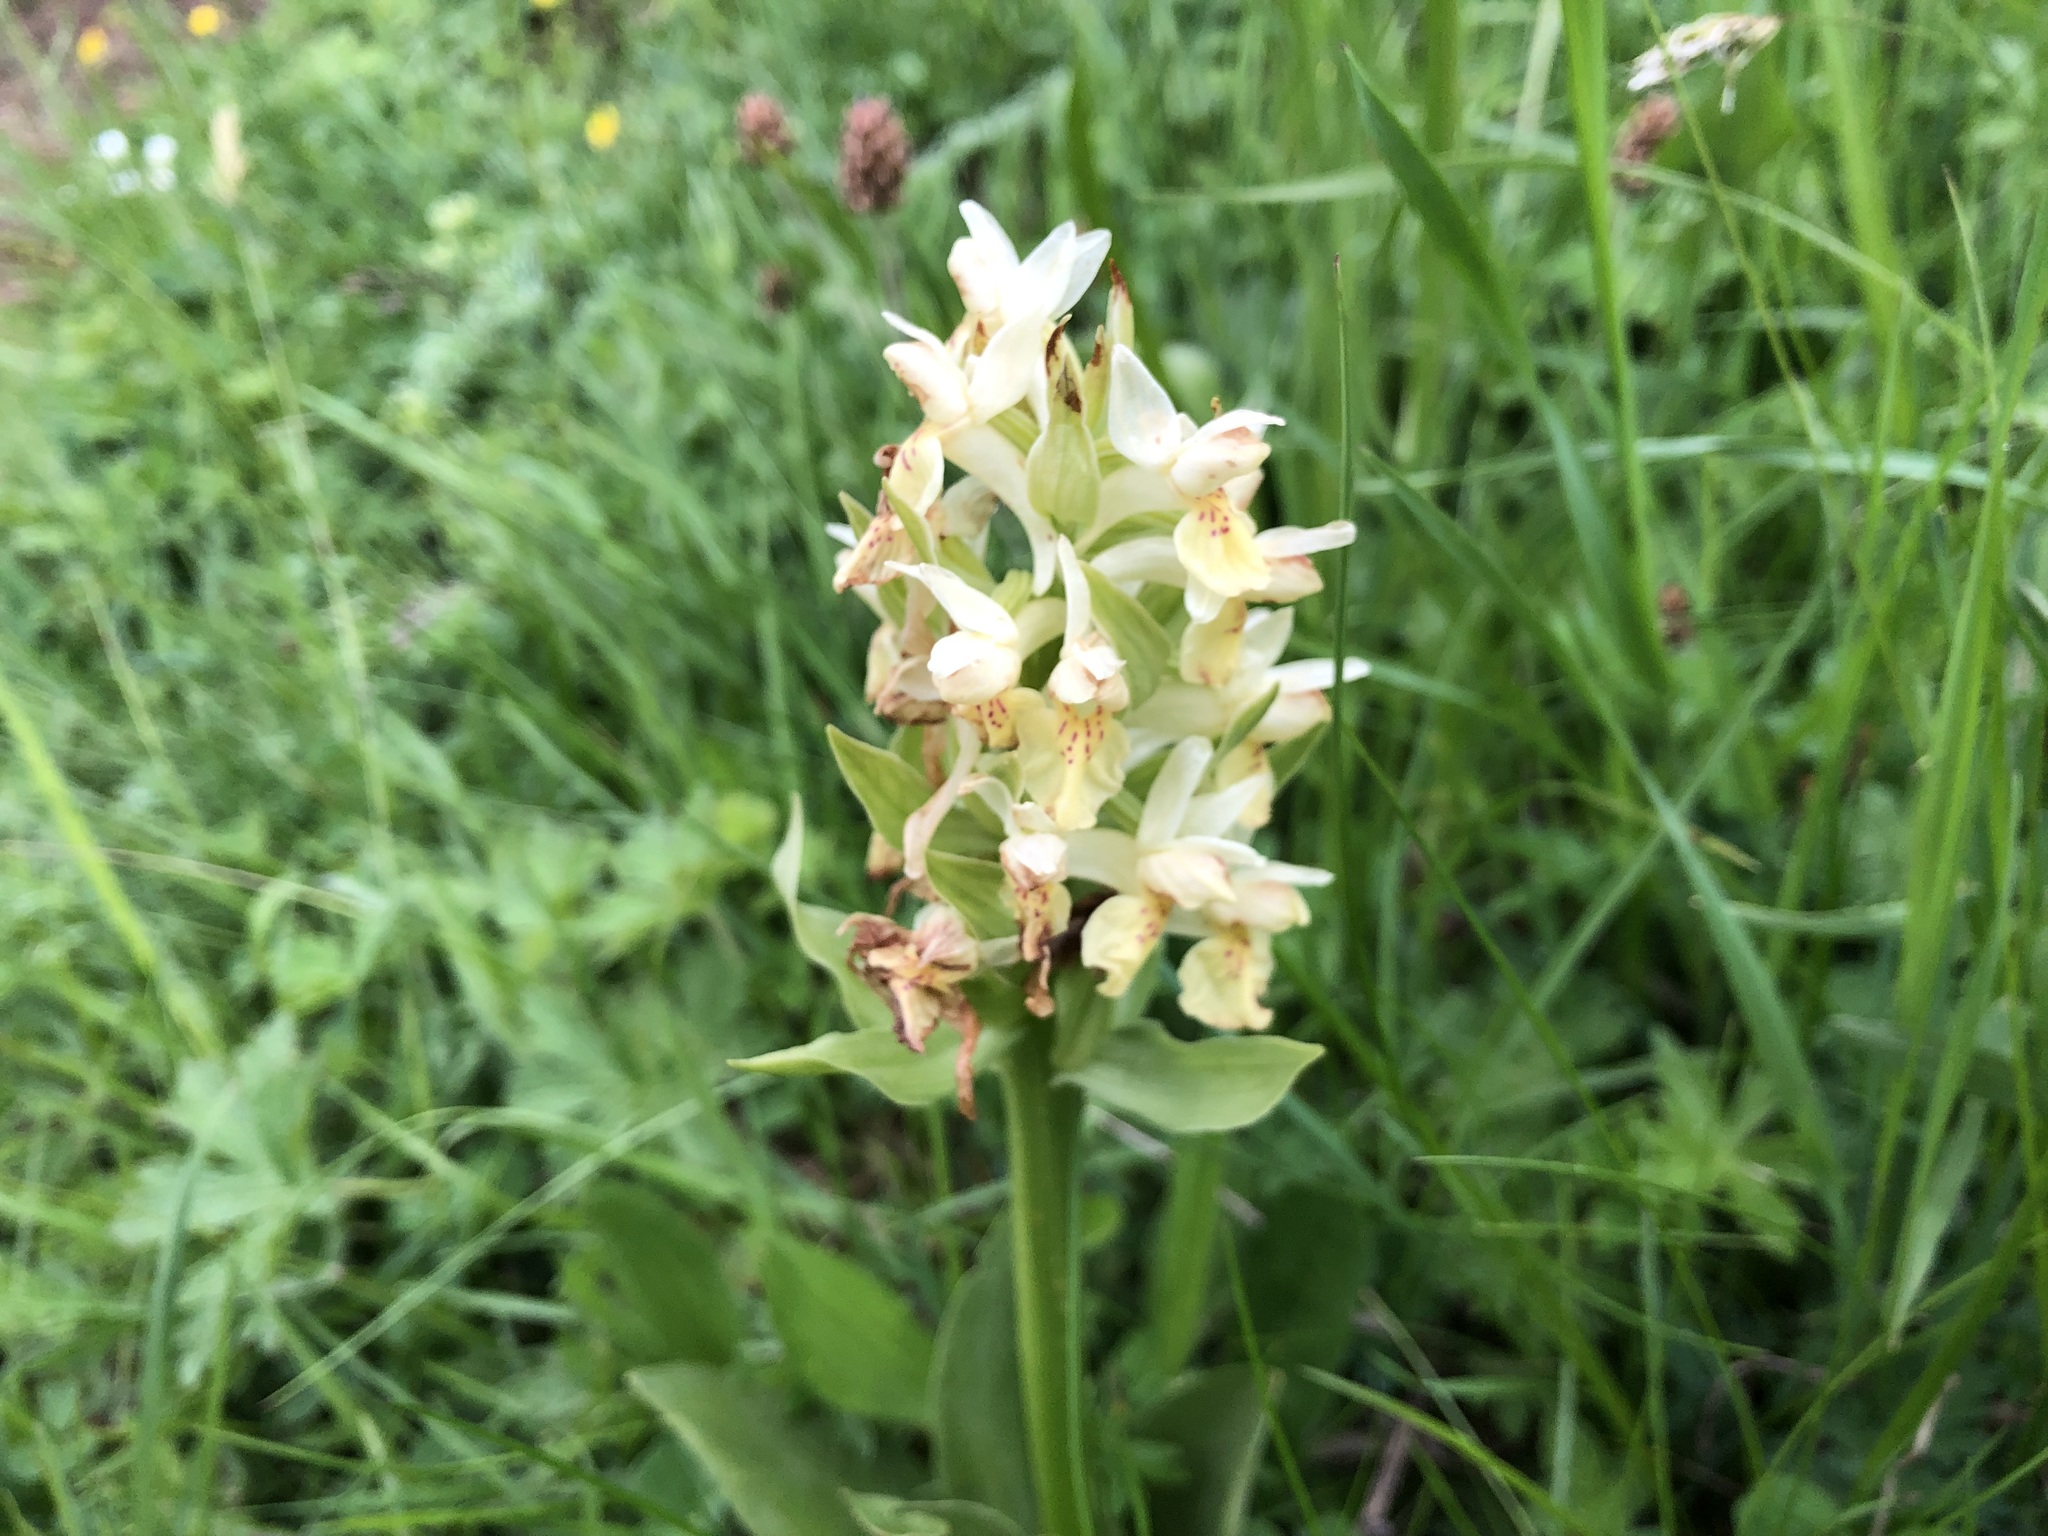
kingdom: Plantae
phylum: Tracheophyta
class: Liliopsida
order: Asparagales
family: Orchidaceae
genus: Dactylorhiza
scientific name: Dactylorhiza sambucina
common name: Elder-flowered orchid
